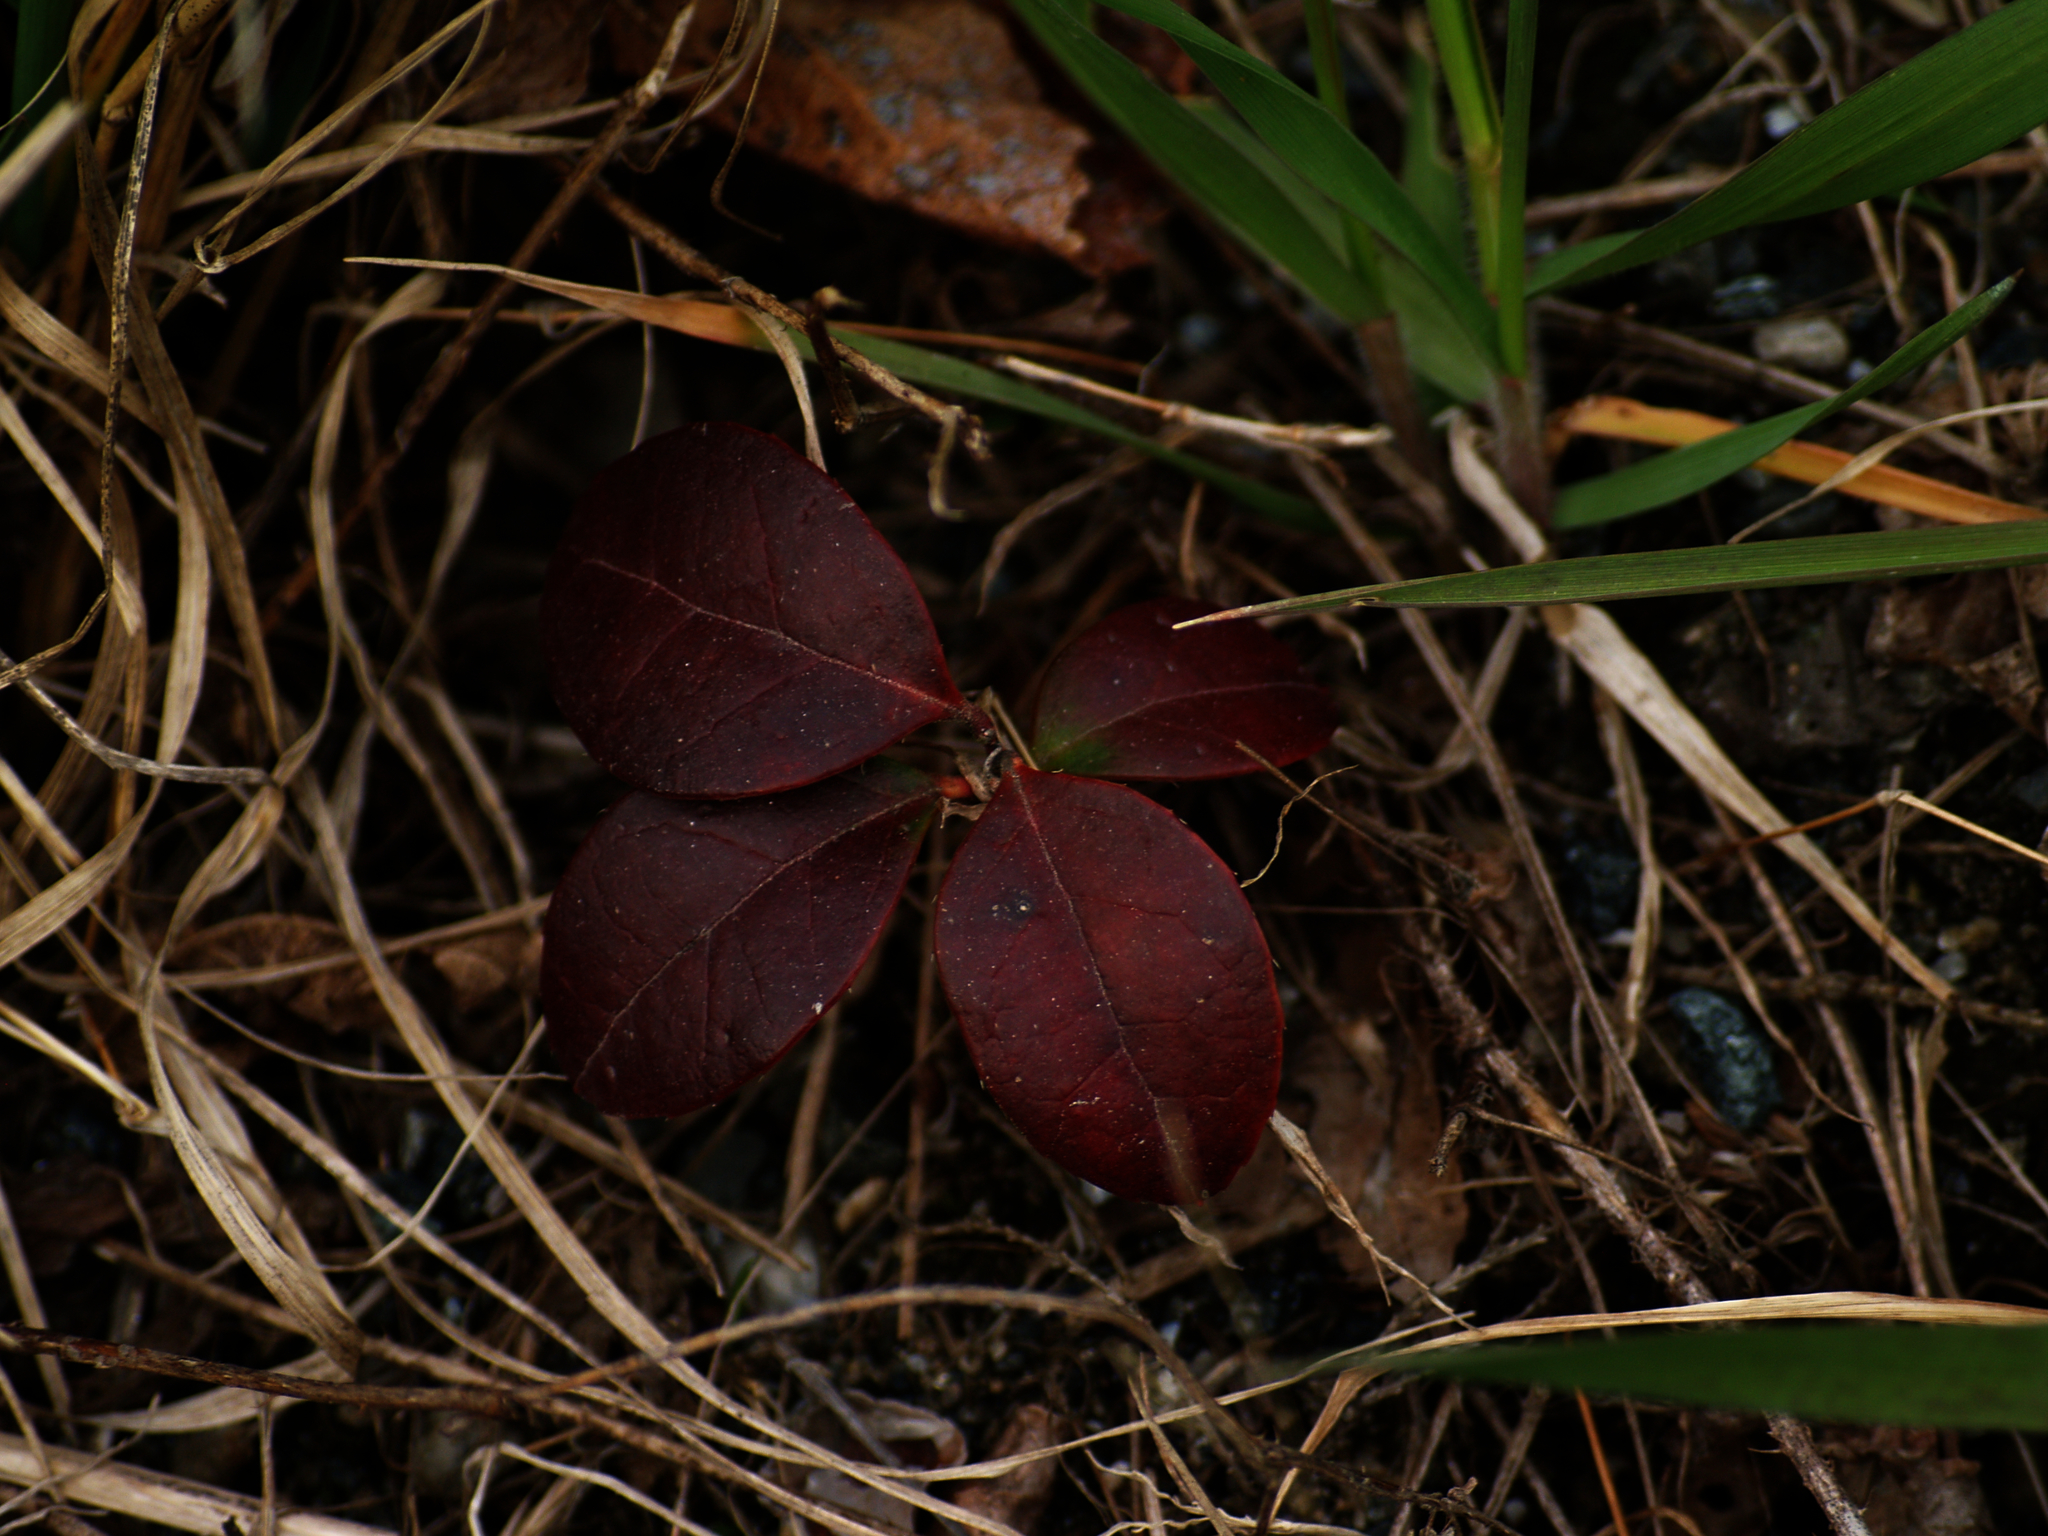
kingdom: Plantae
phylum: Tracheophyta
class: Magnoliopsida
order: Ericales
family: Ericaceae
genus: Gaultheria
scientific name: Gaultheria procumbens
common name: Checkerberry
